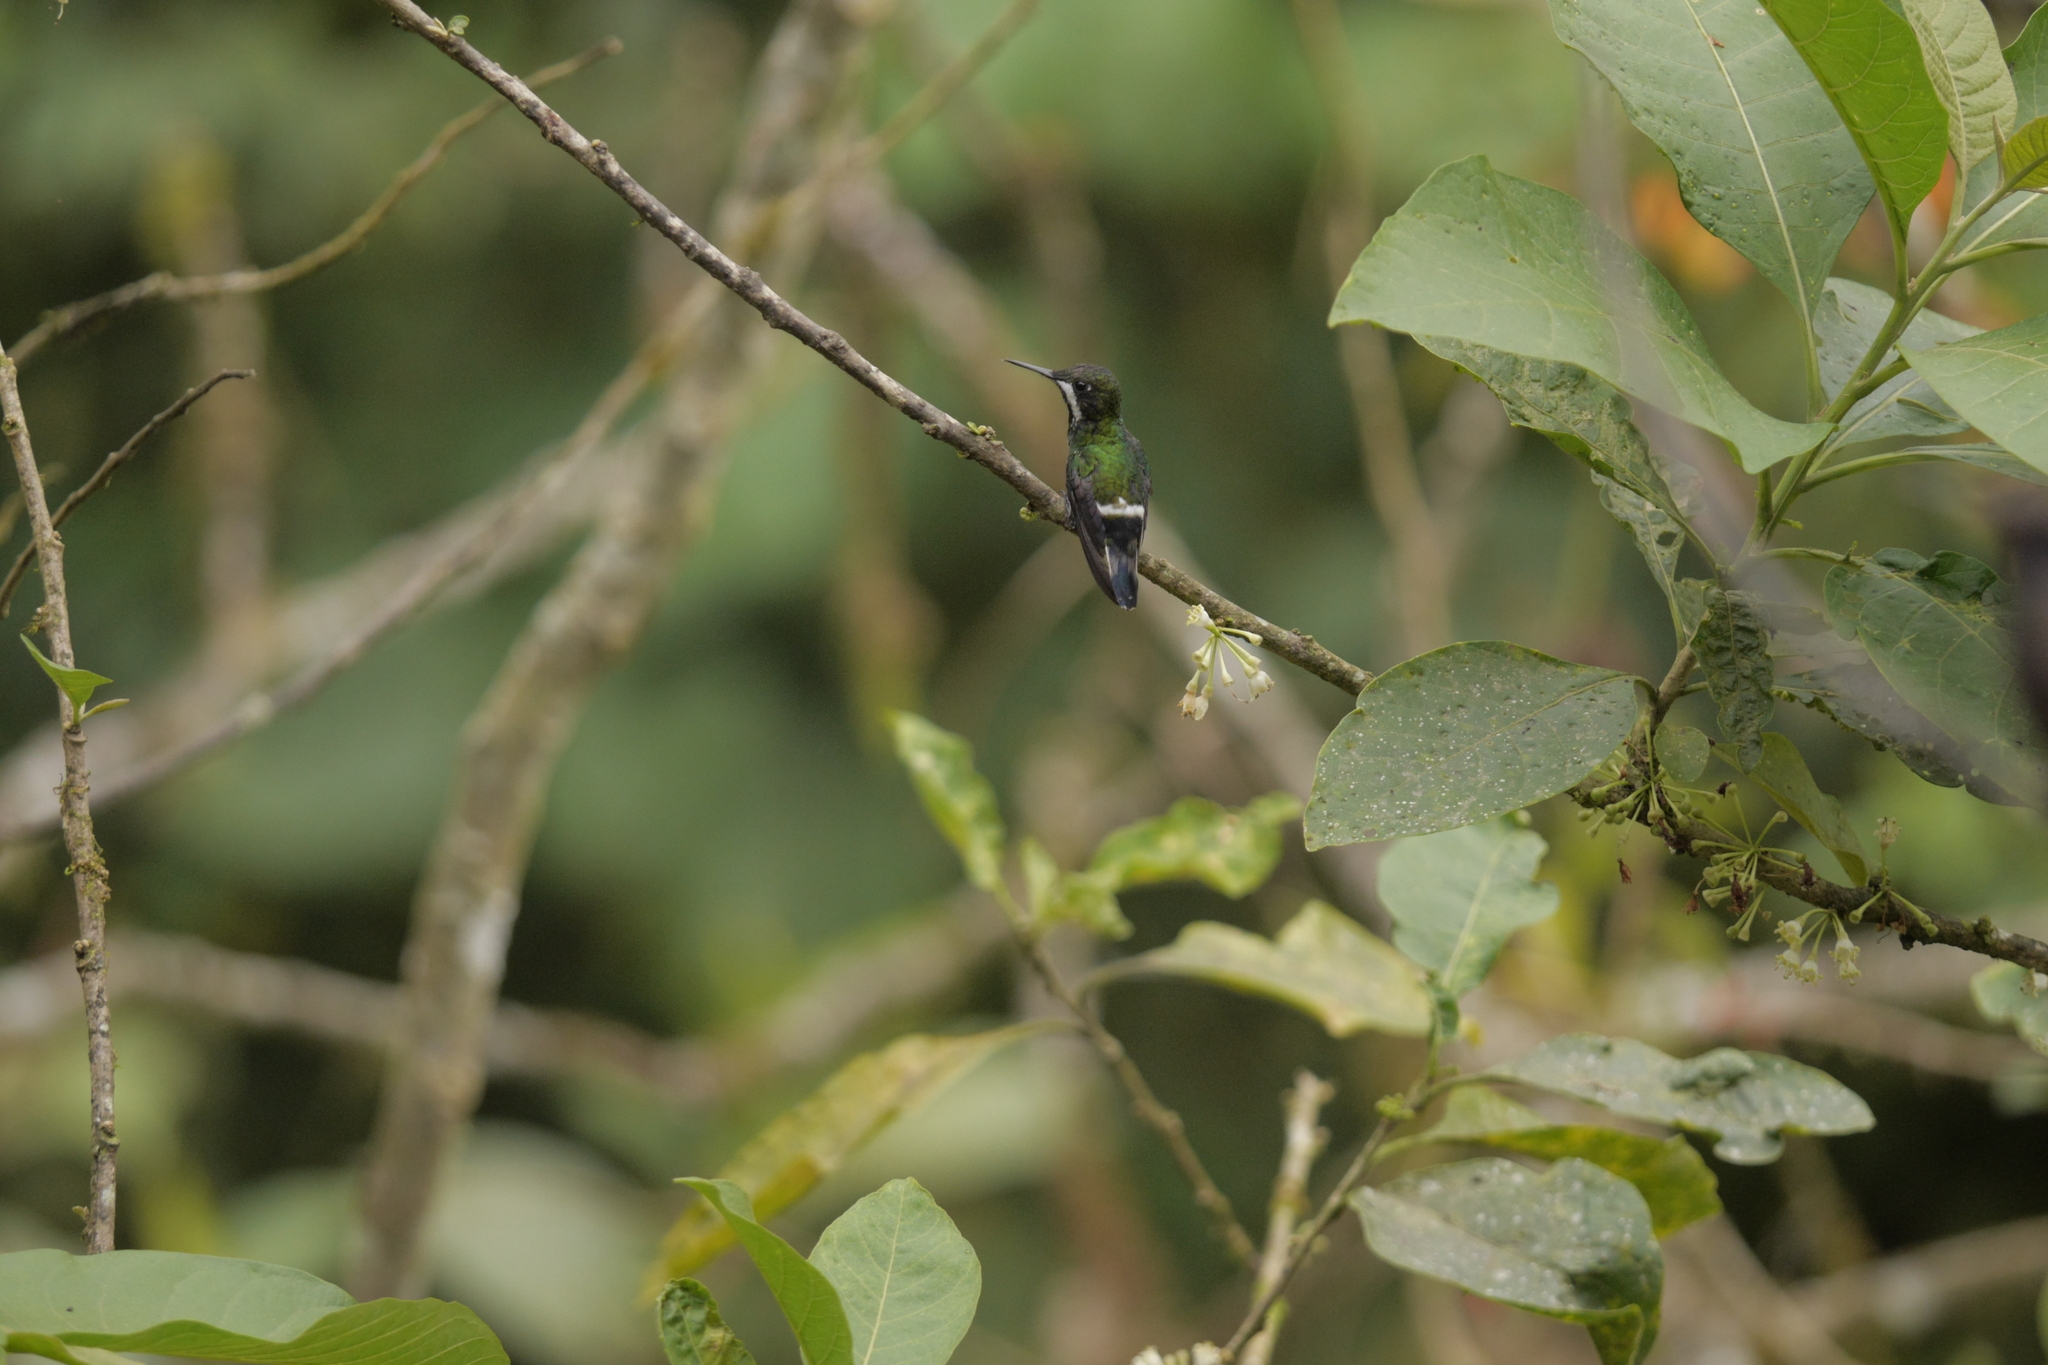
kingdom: Animalia
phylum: Chordata
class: Aves
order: Apodiformes
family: Trochilidae
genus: Discosura
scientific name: Discosura conversii
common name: Green thorntail
